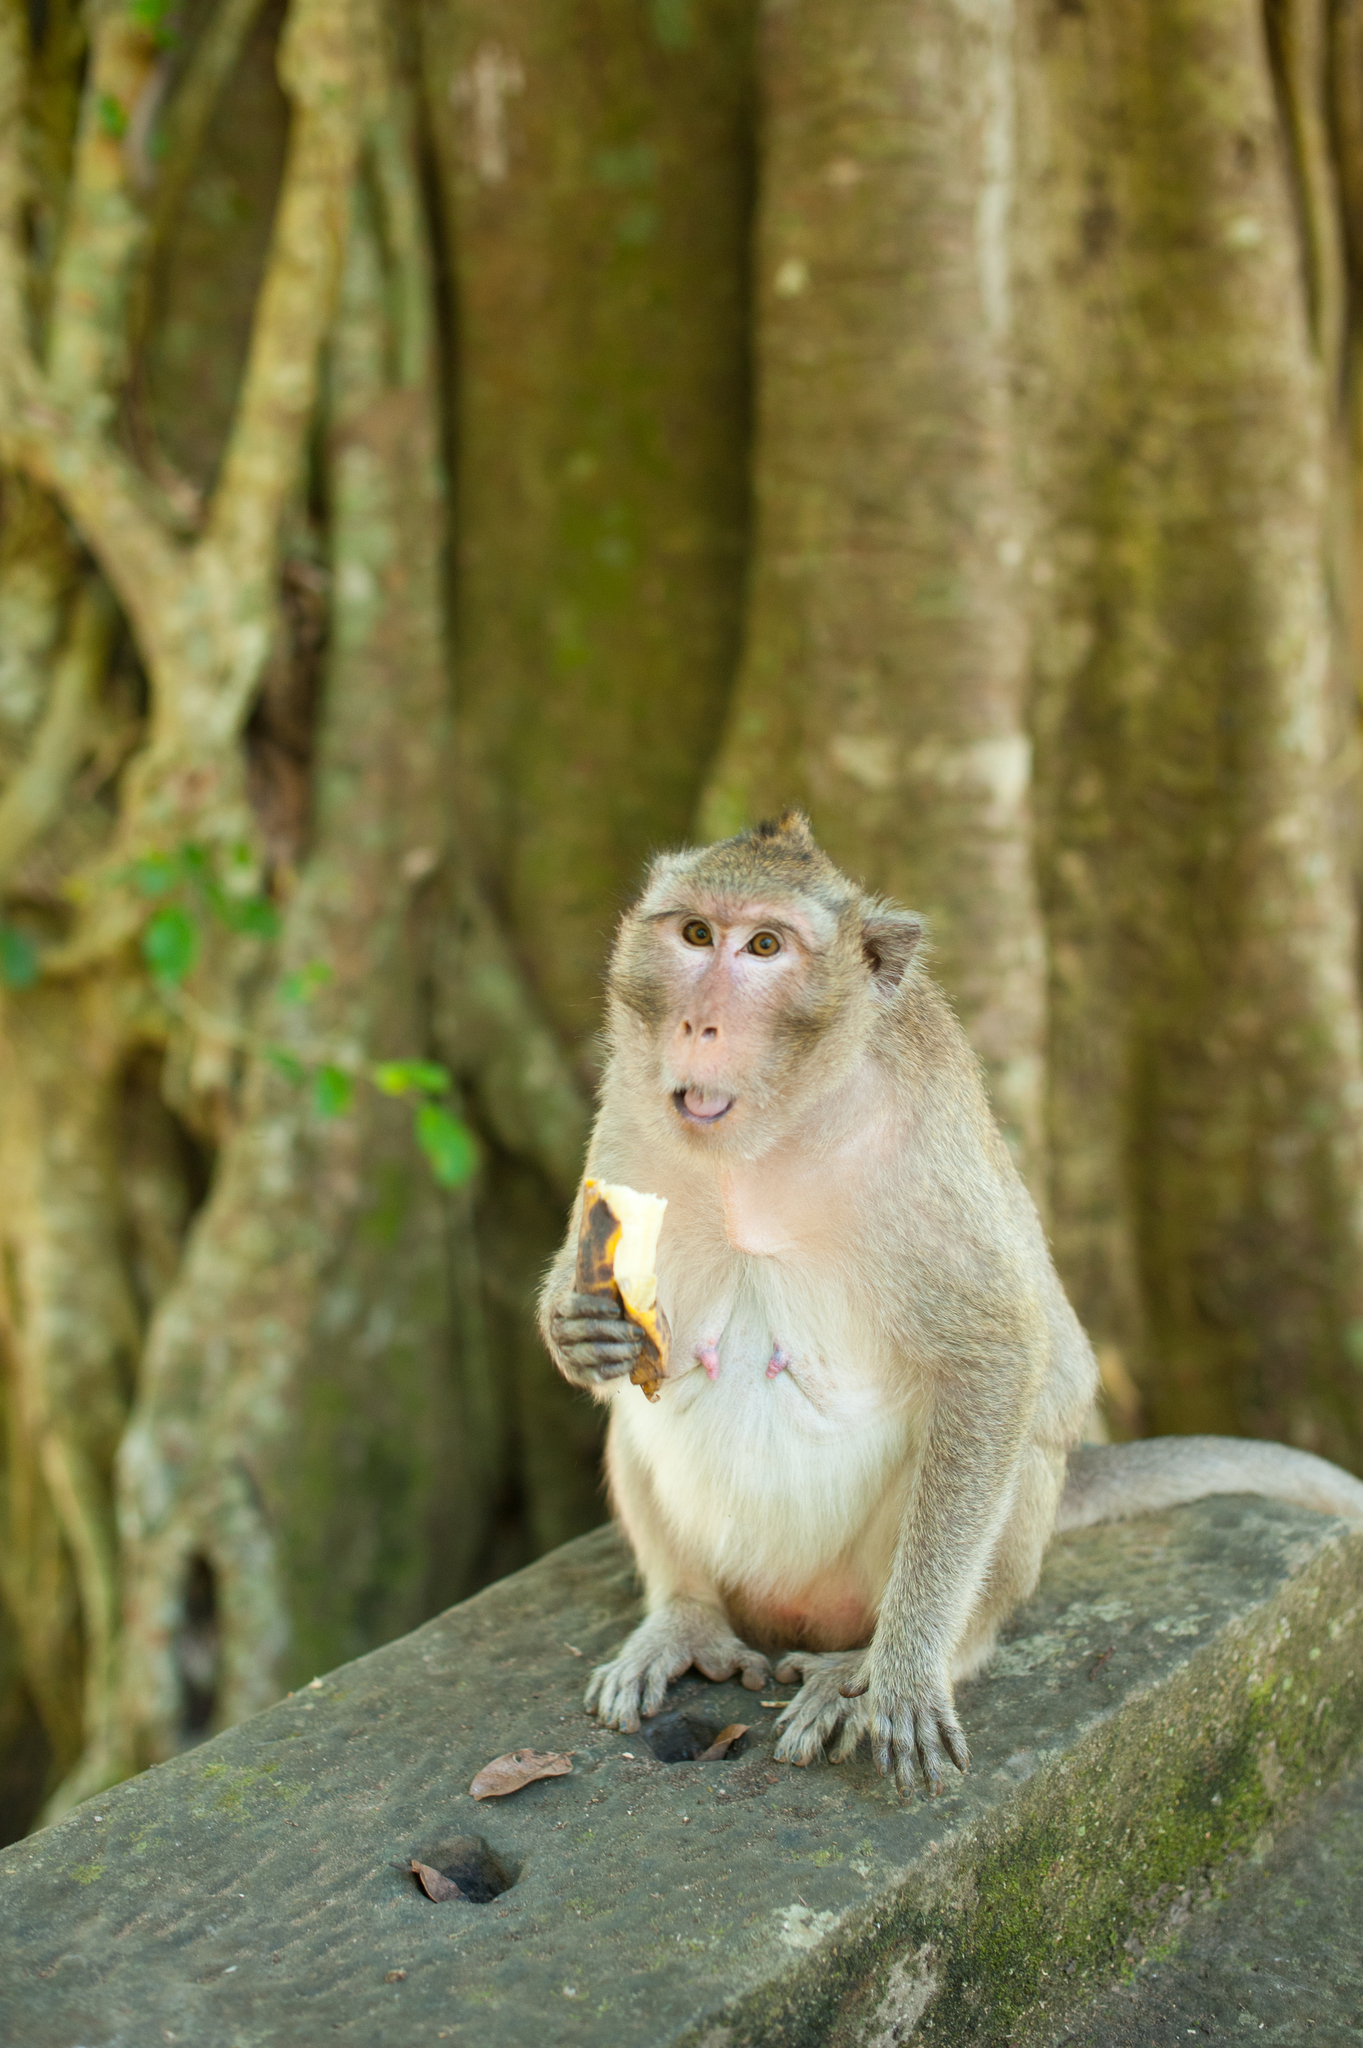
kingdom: Animalia
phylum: Chordata
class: Mammalia
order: Primates
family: Cercopithecidae
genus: Macaca
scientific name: Macaca fascicularis
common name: Crab-eating macaque
